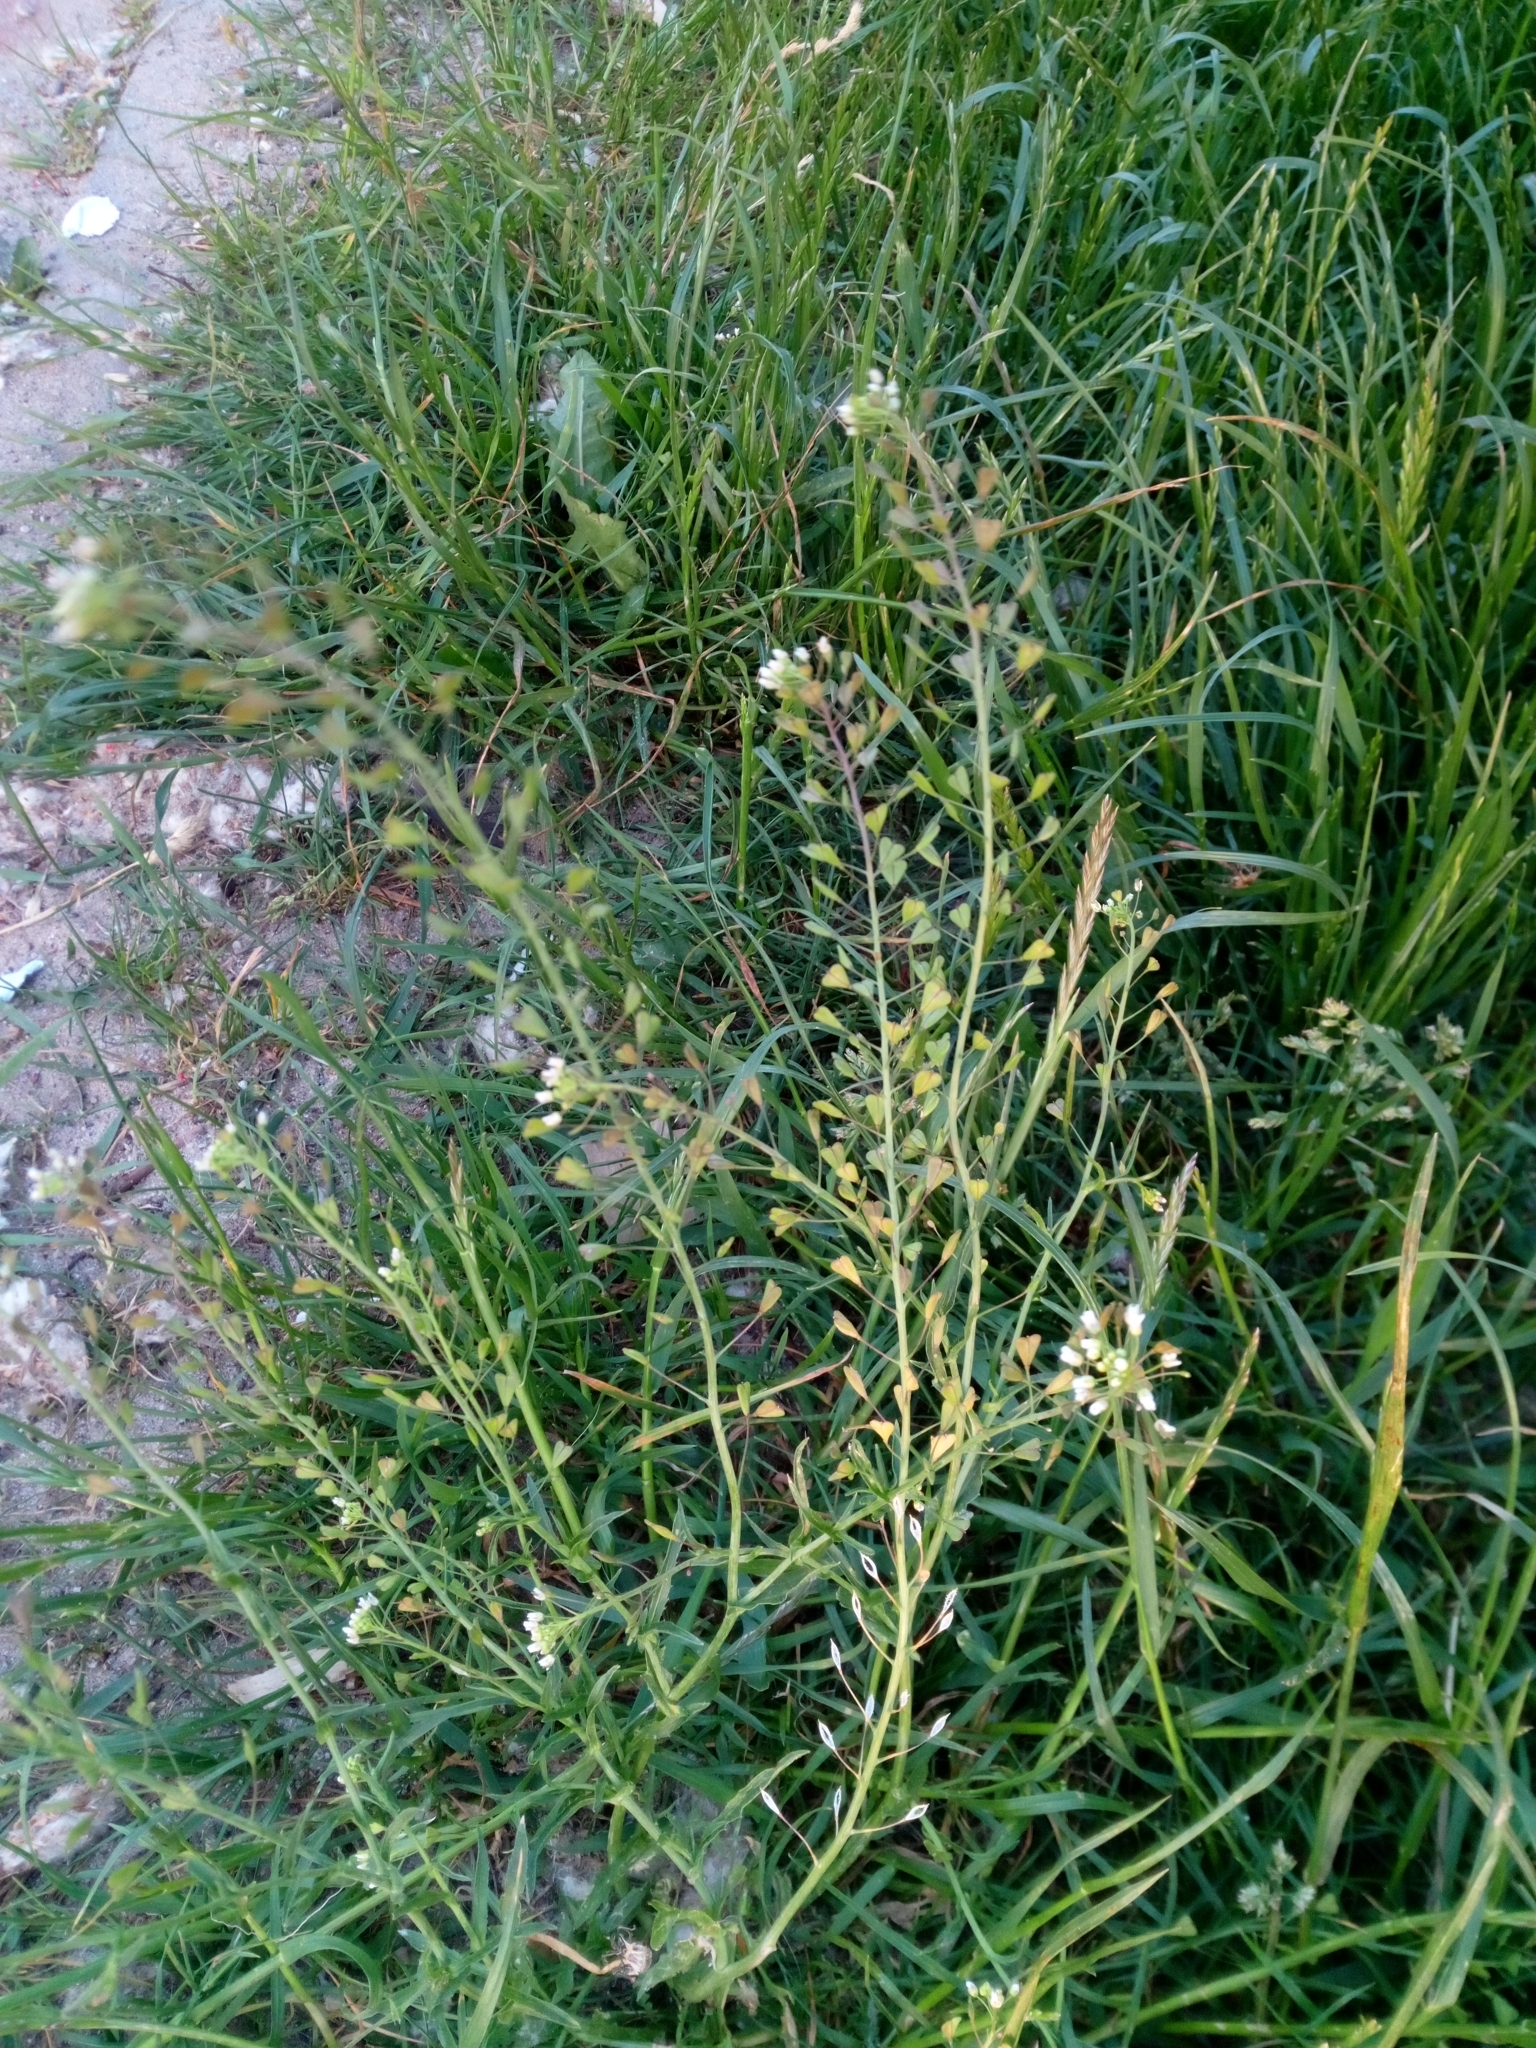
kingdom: Plantae
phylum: Tracheophyta
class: Magnoliopsida
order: Brassicales
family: Brassicaceae
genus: Capsella
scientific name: Capsella bursa-pastoris
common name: Shepherd's purse
